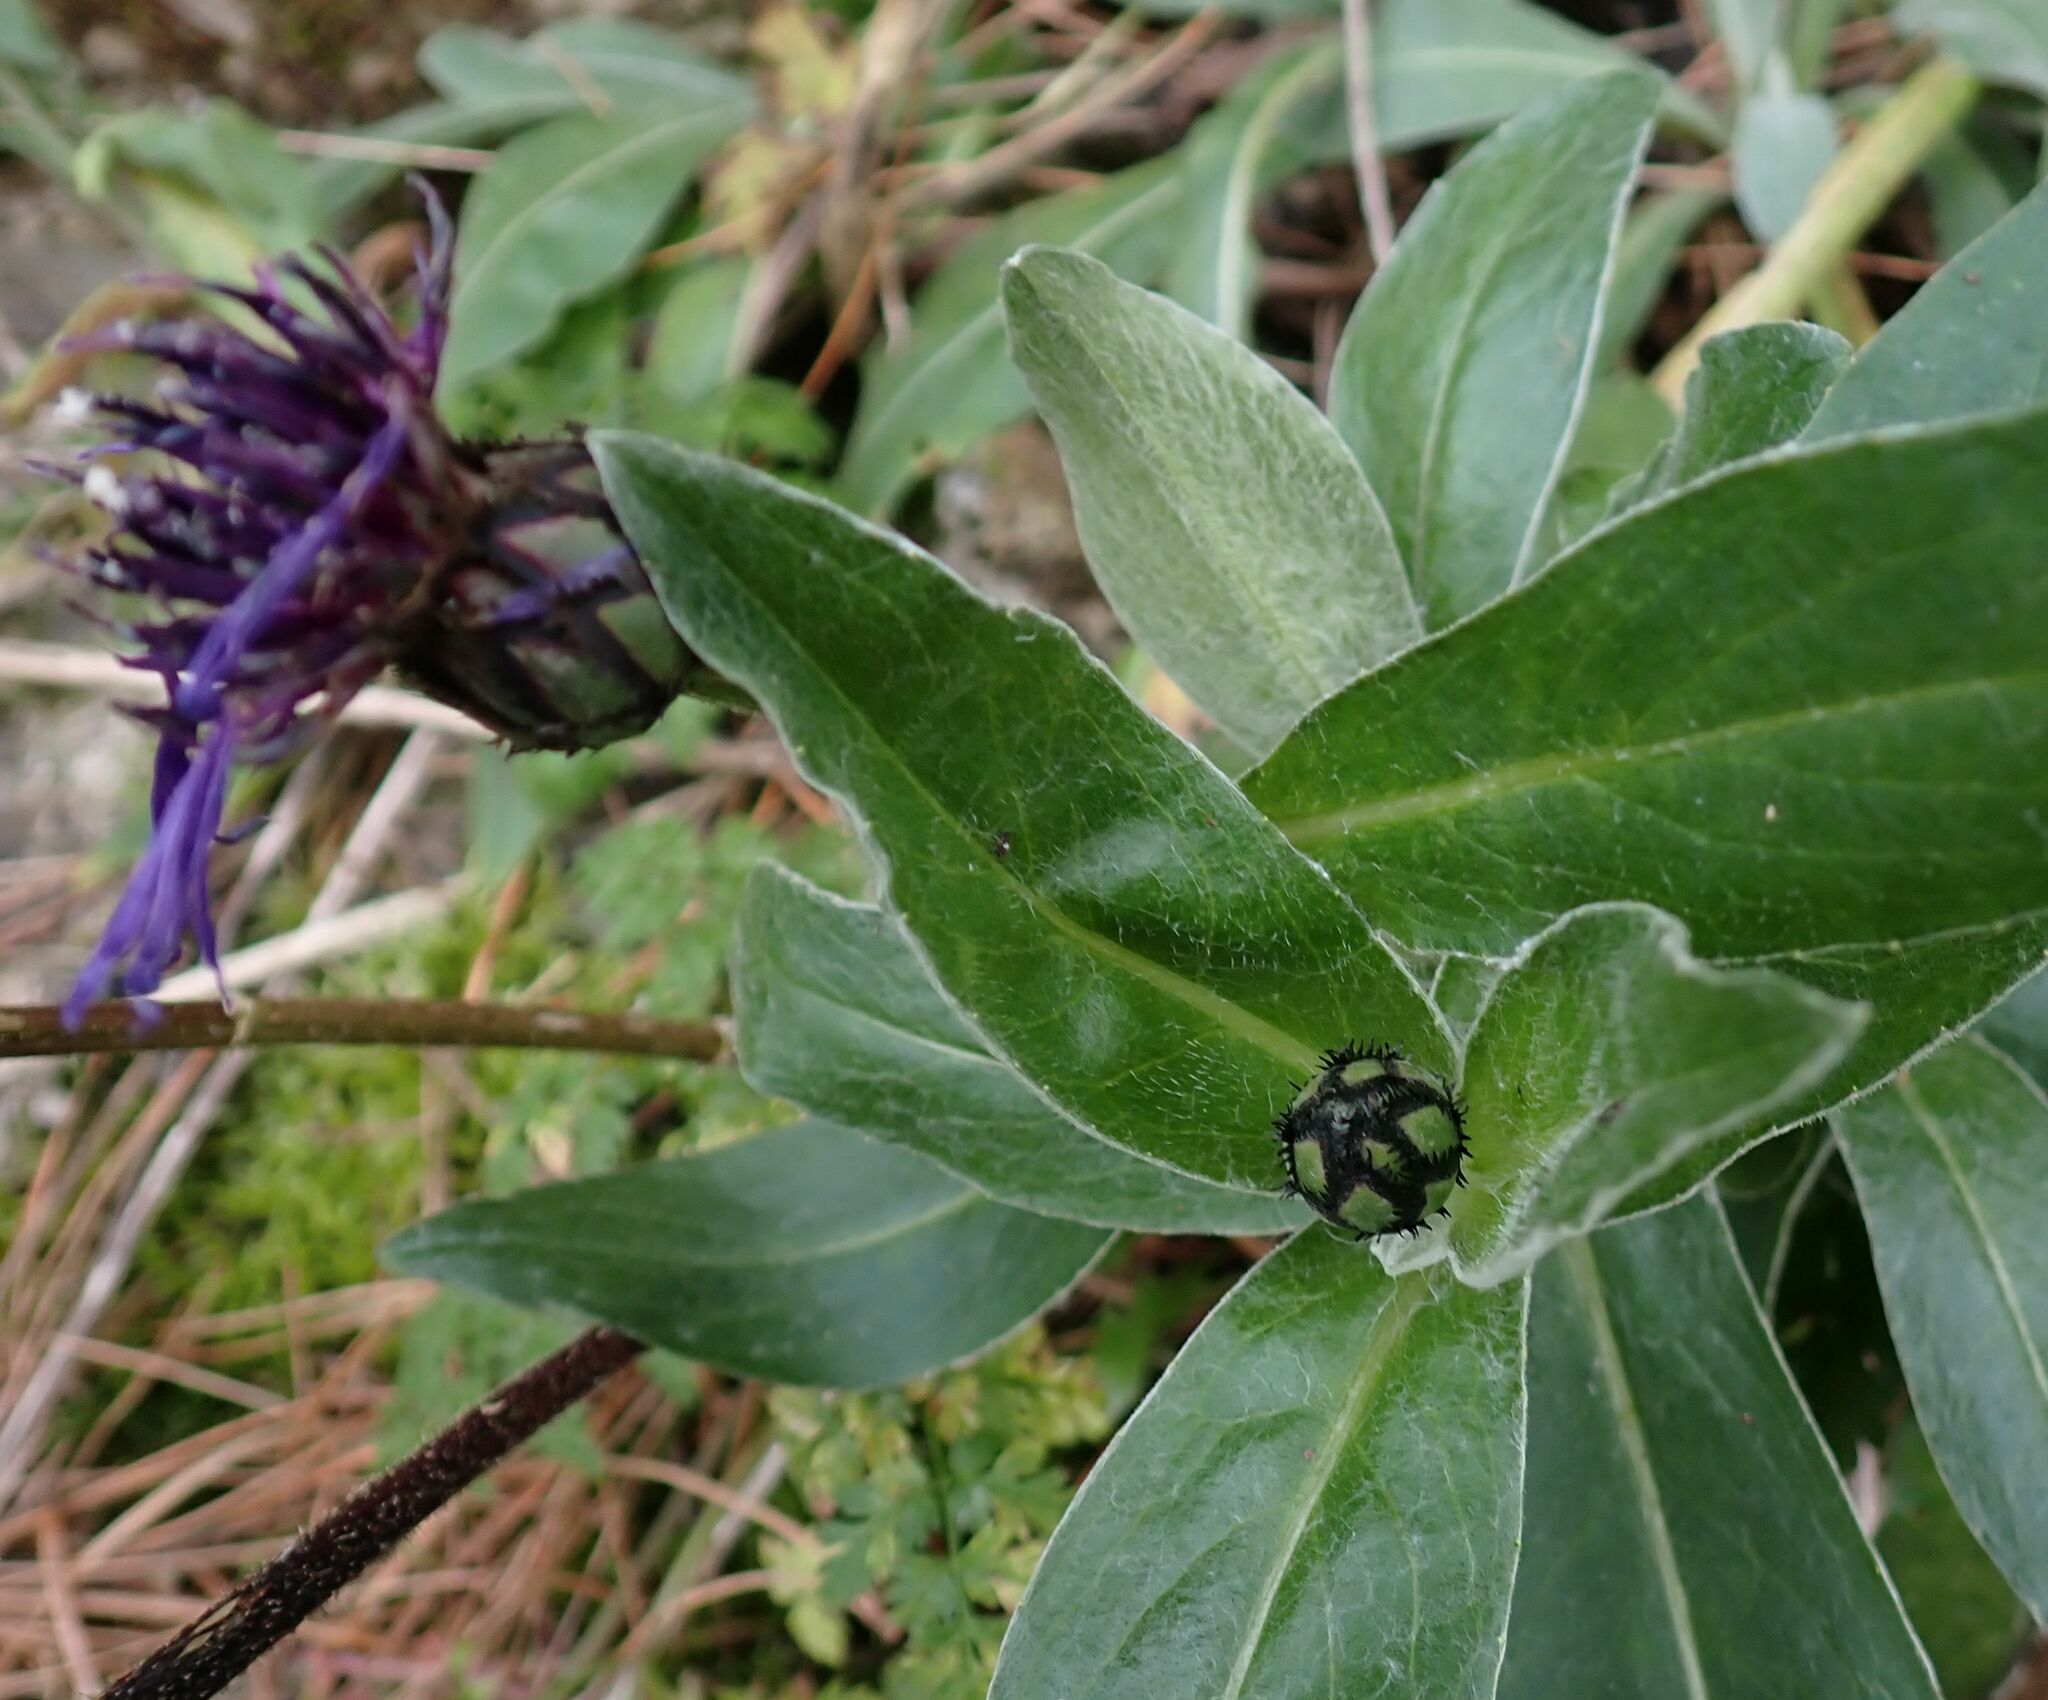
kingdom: Plantae
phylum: Tracheophyta
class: Magnoliopsida
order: Asterales
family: Asteraceae
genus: Centaurea
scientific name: Centaurea montana
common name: Perennial cornflower
